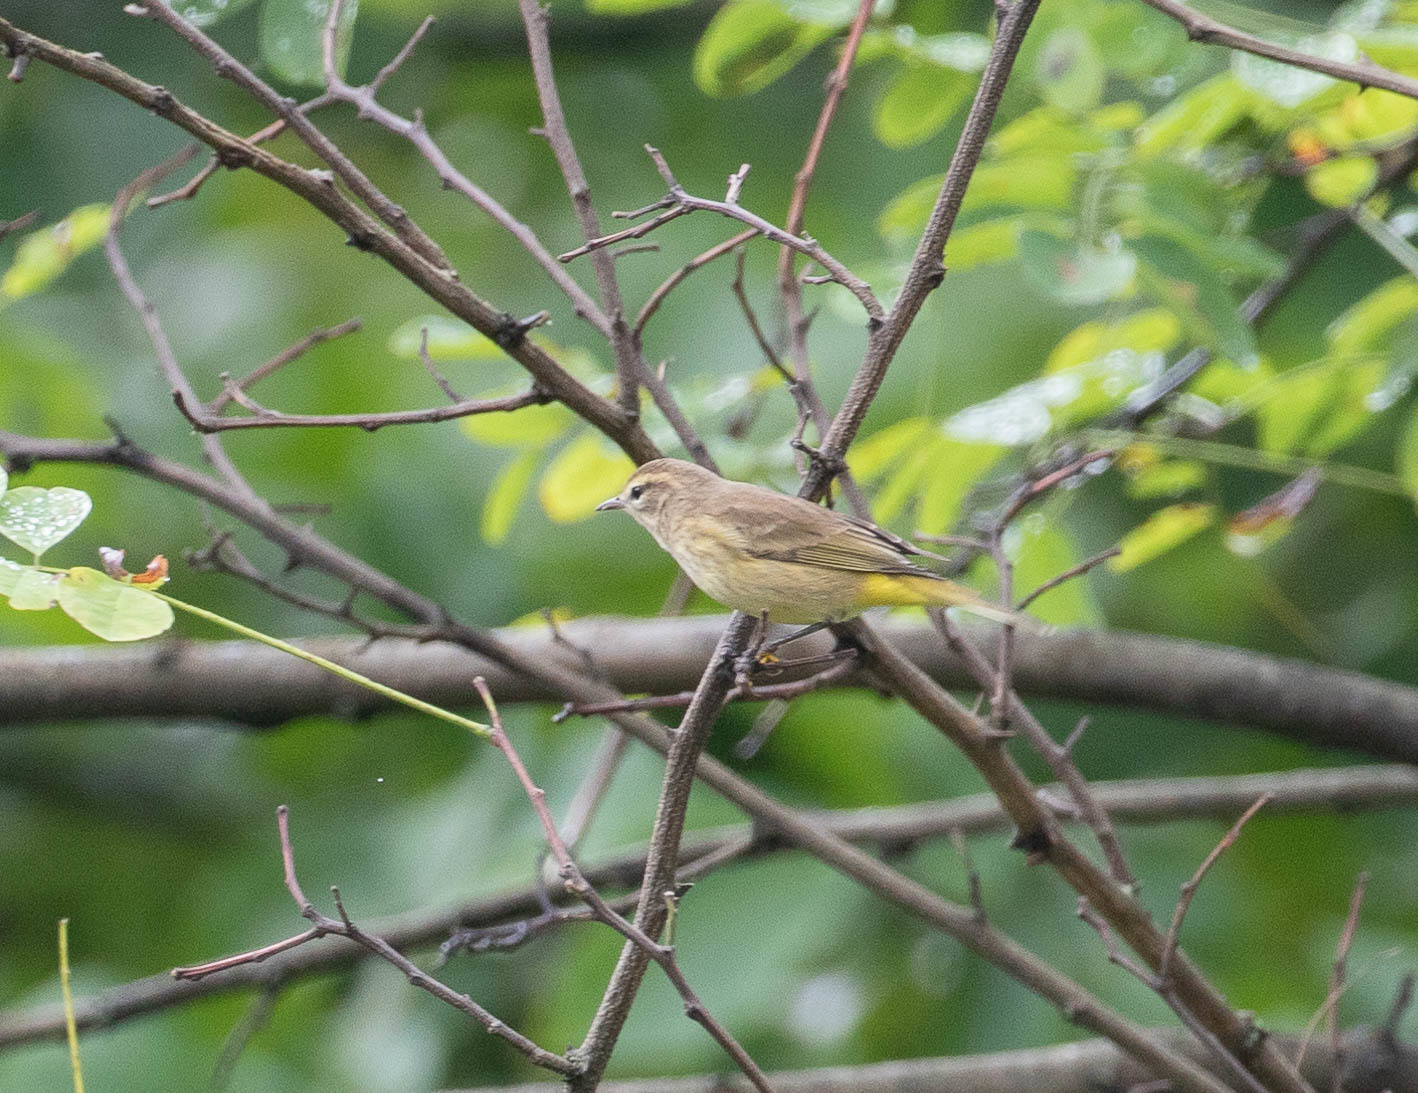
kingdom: Animalia
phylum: Chordata
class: Aves
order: Passeriformes
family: Parulidae
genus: Setophaga
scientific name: Setophaga palmarum
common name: Palm warbler
